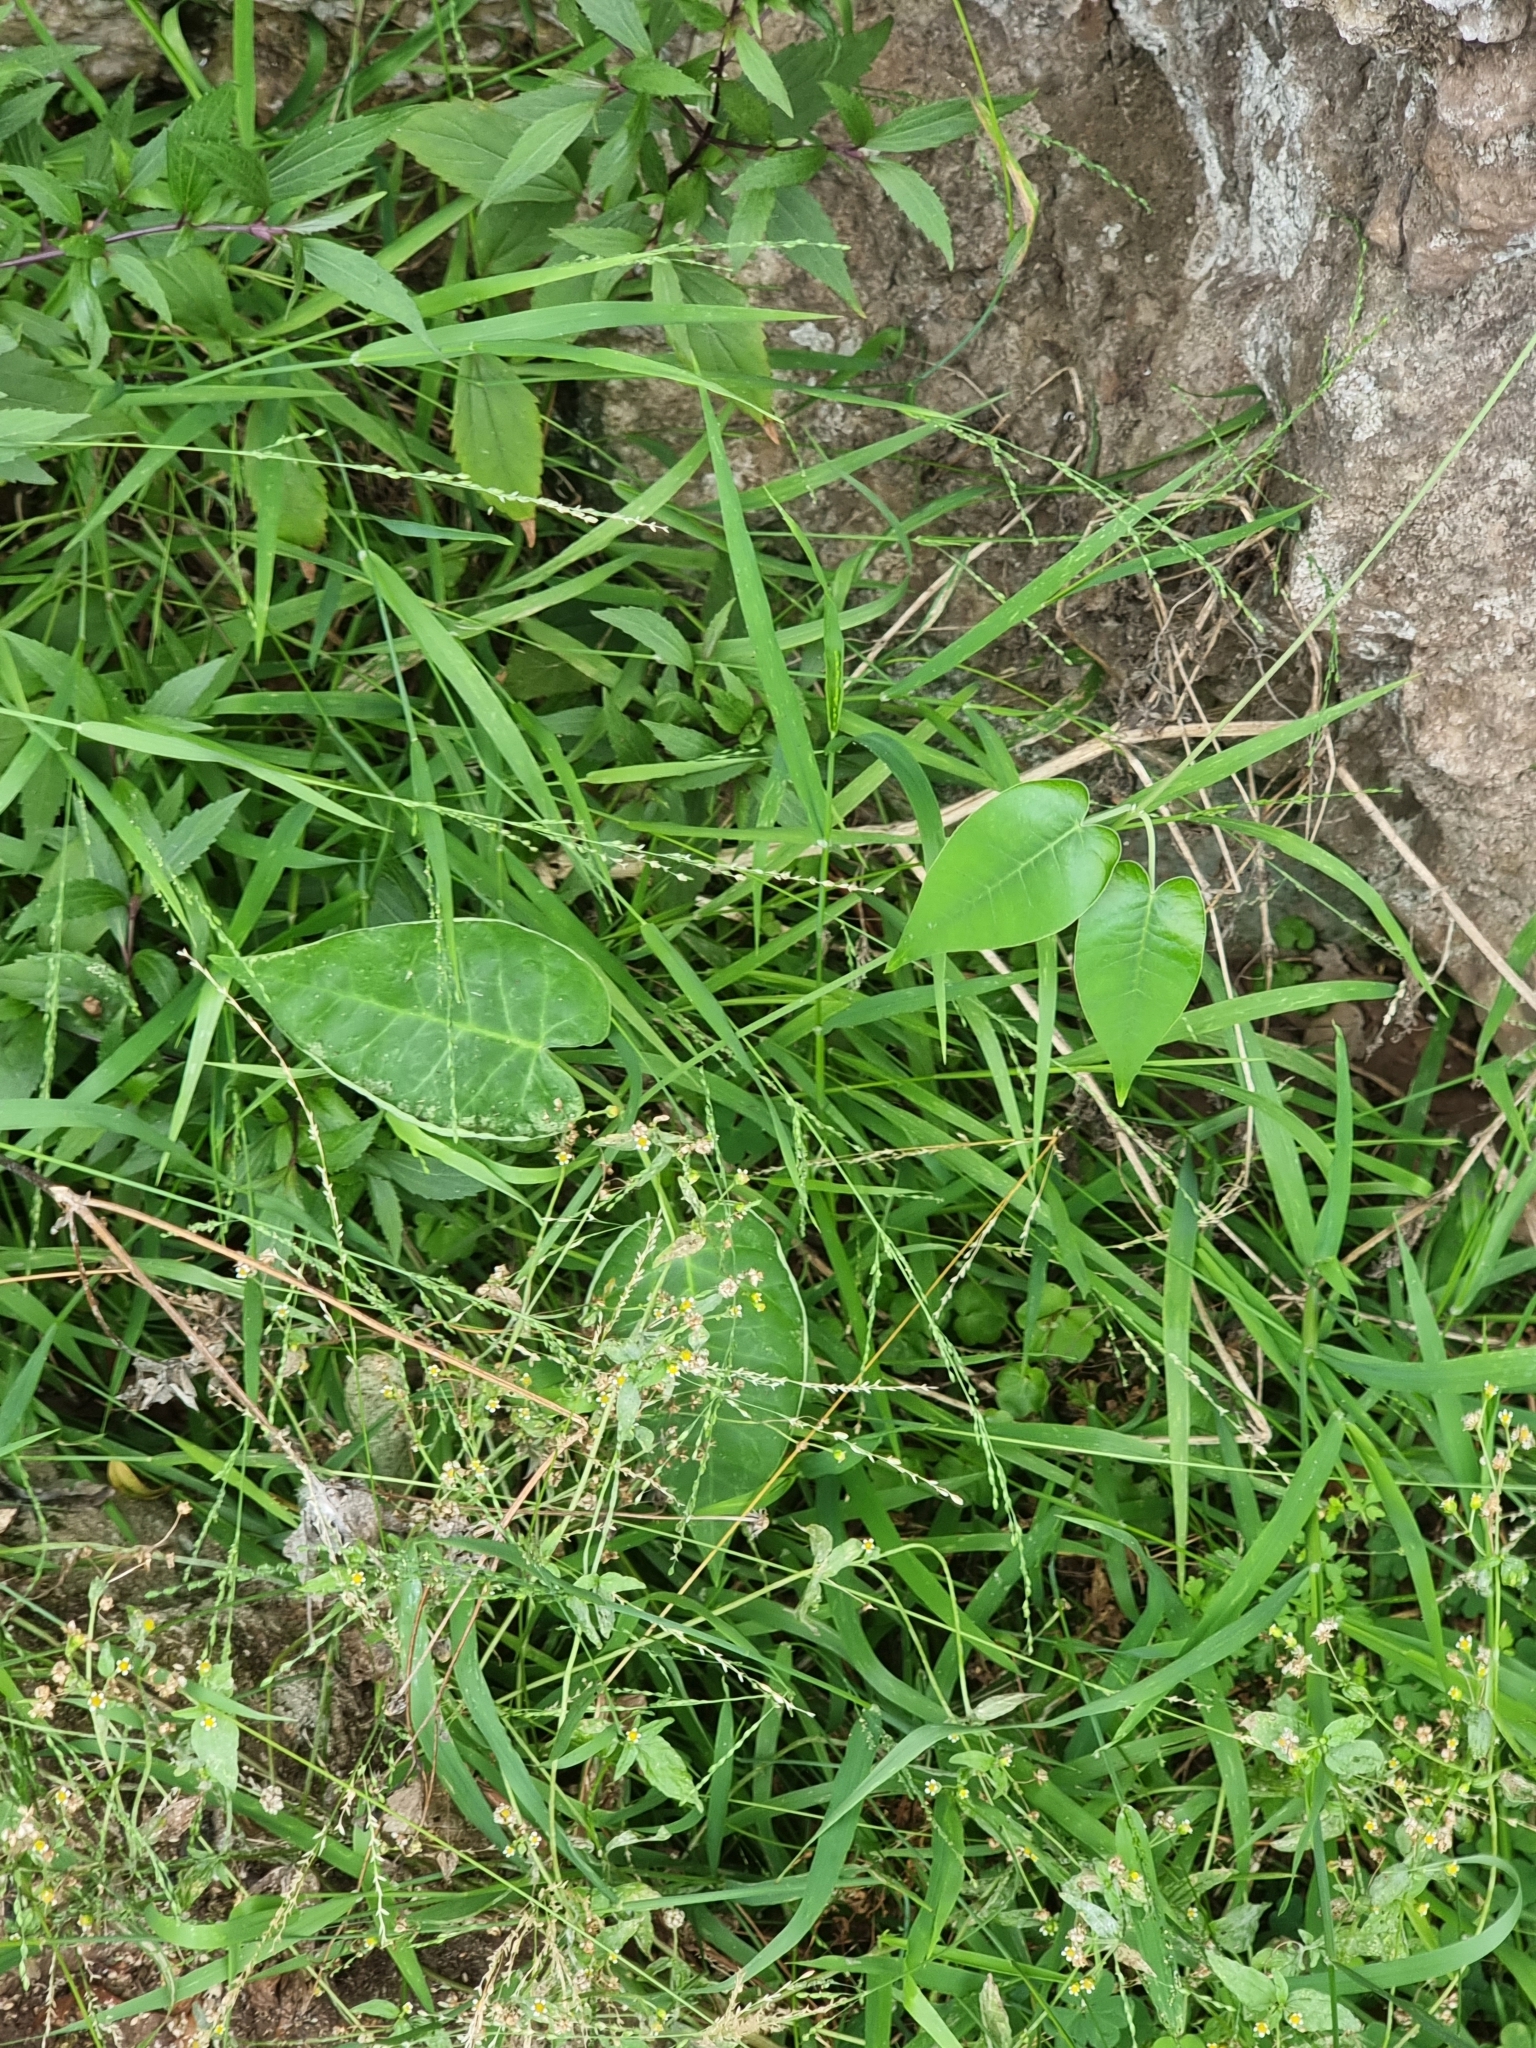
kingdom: Plantae
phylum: Tracheophyta
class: Magnoliopsida
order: Gentianales
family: Apocynaceae
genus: Araujia
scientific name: Araujia sericifera
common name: White bladderflower
